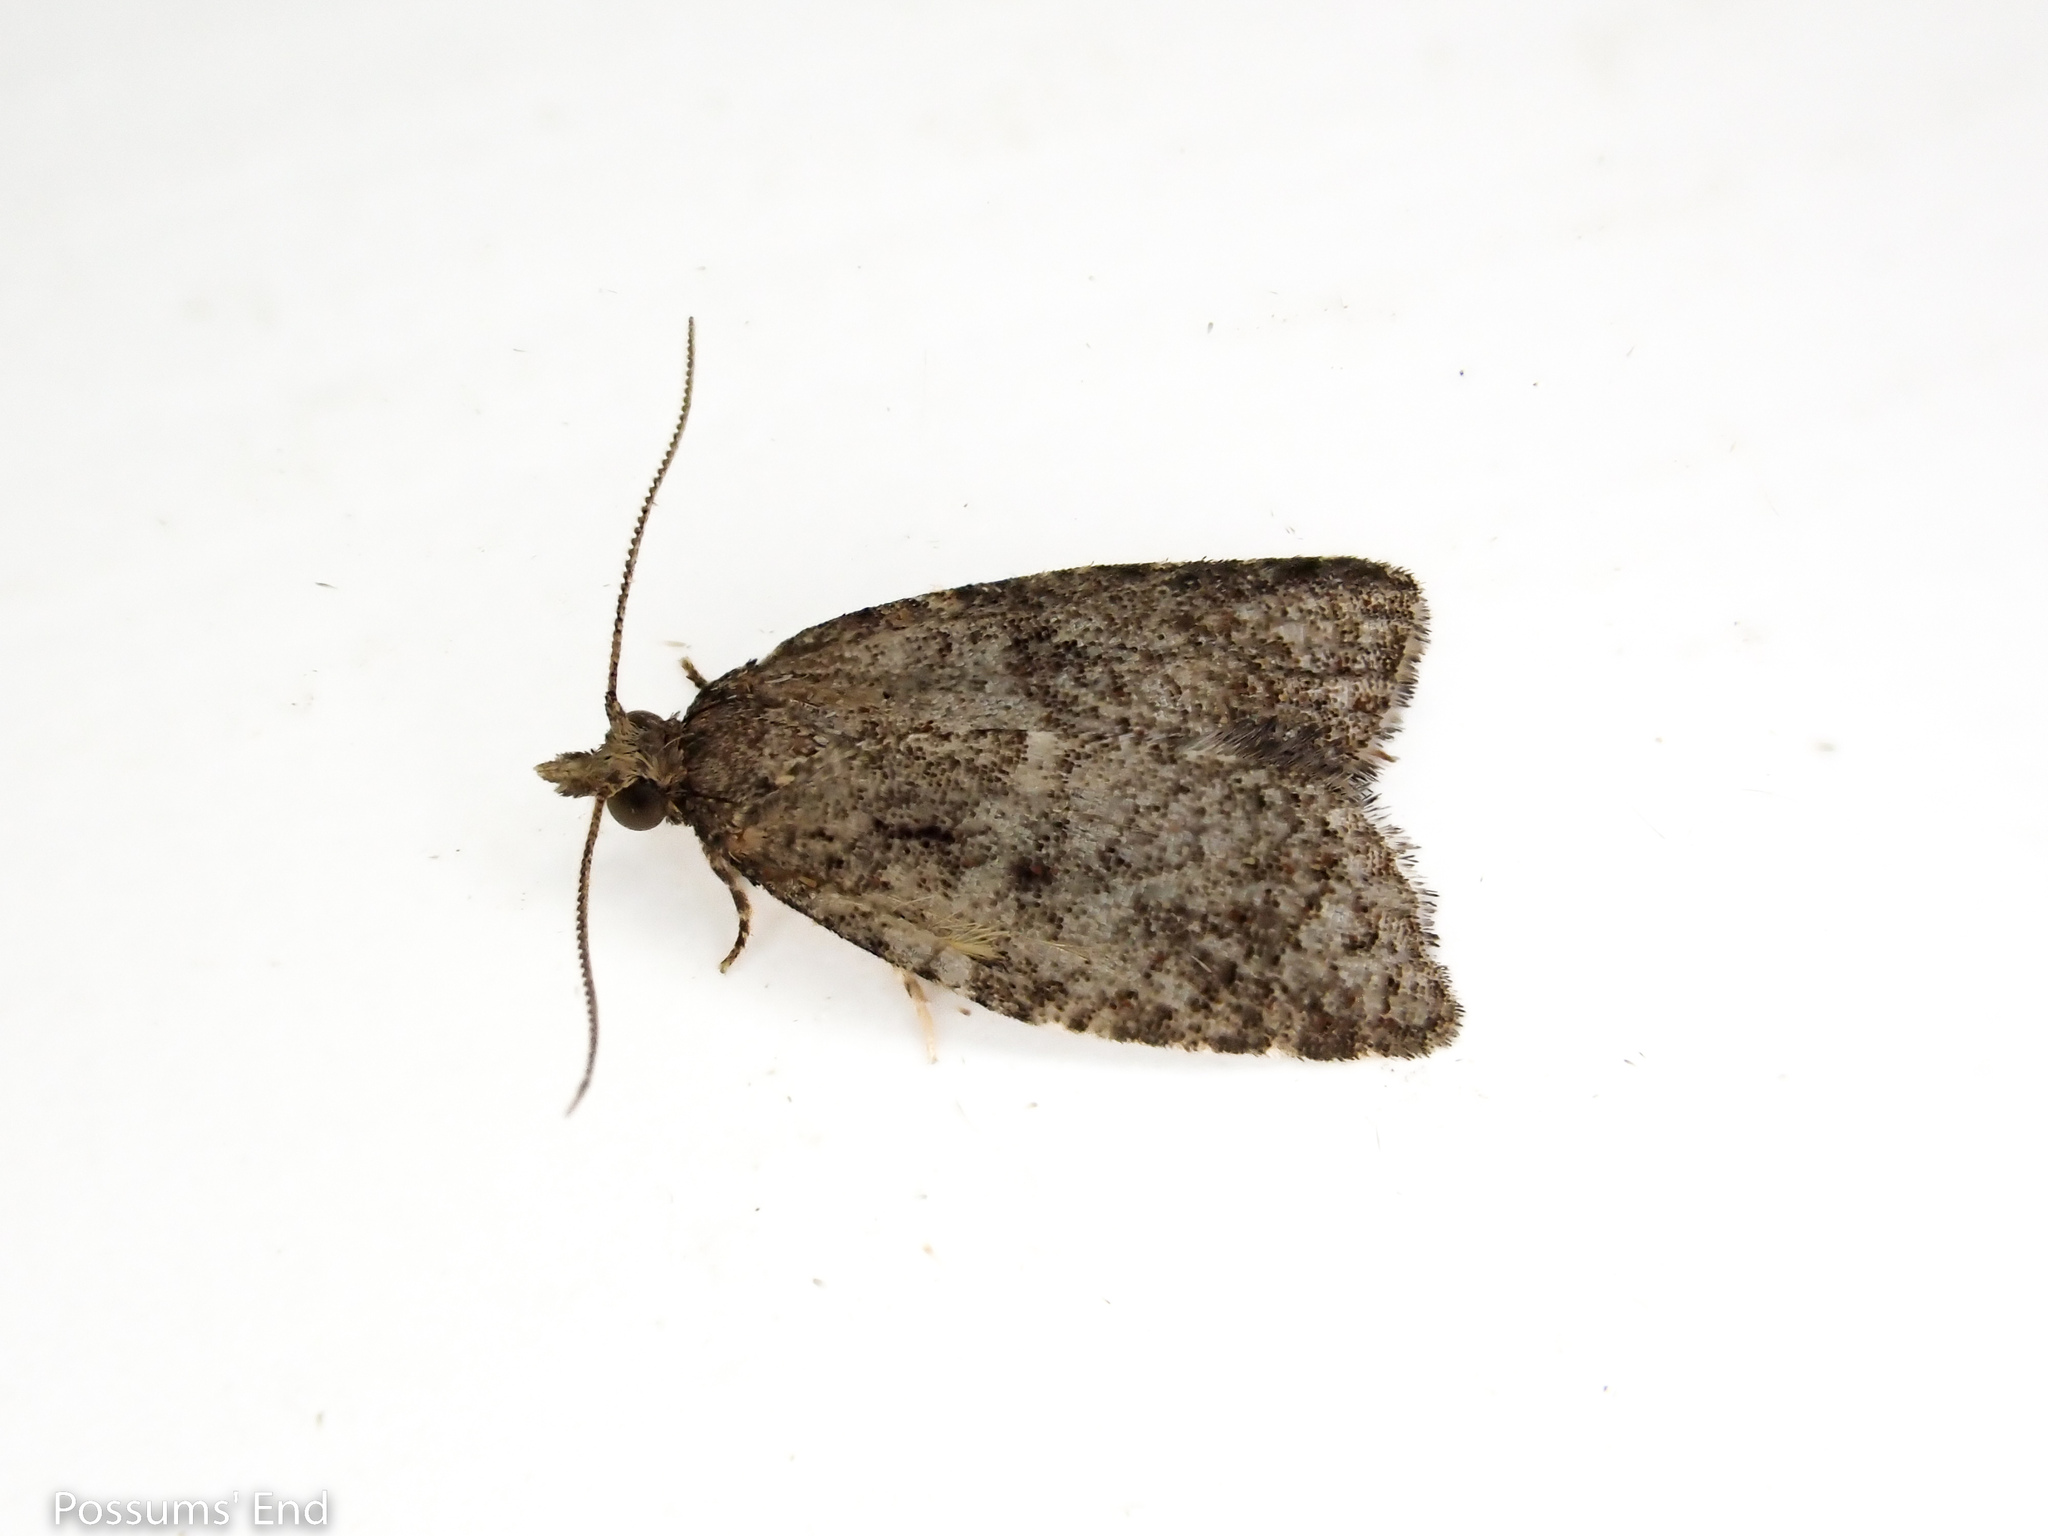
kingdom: Animalia
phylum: Arthropoda
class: Insecta
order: Lepidoptera
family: Tortricidae
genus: Capua
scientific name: Capua intractana
